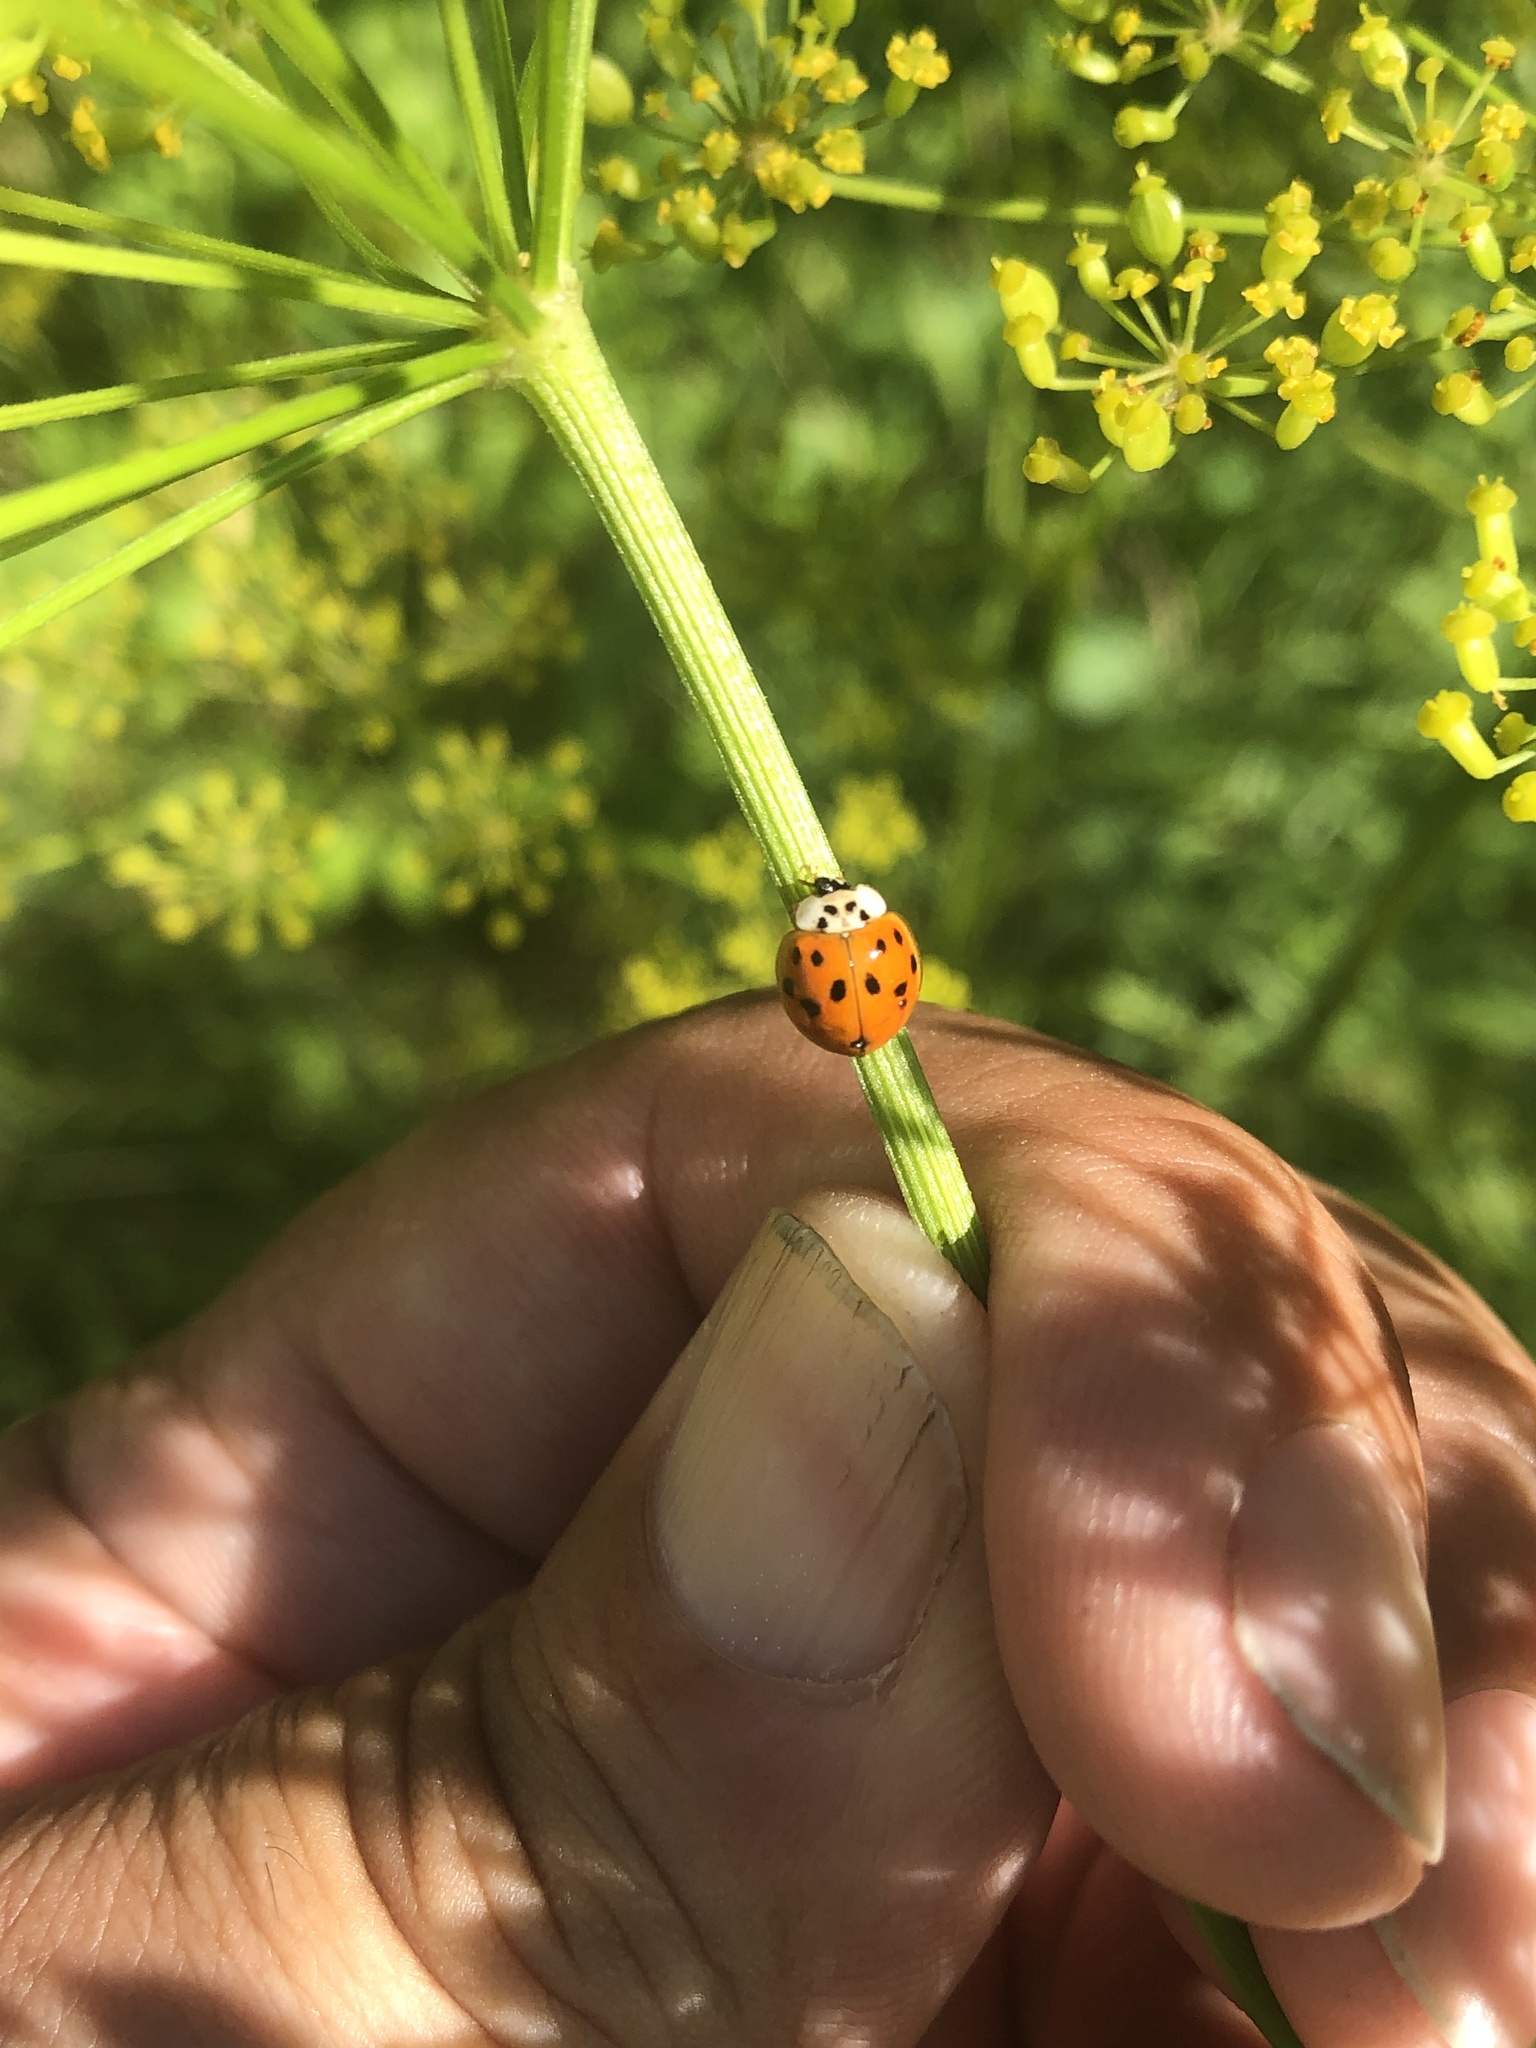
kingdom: Animalia
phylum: Arthropoda
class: Insecta
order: Coleoptera
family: Coccinellidae
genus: Harmonia
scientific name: Harmonia axyridis
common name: Harlequin ladybird
